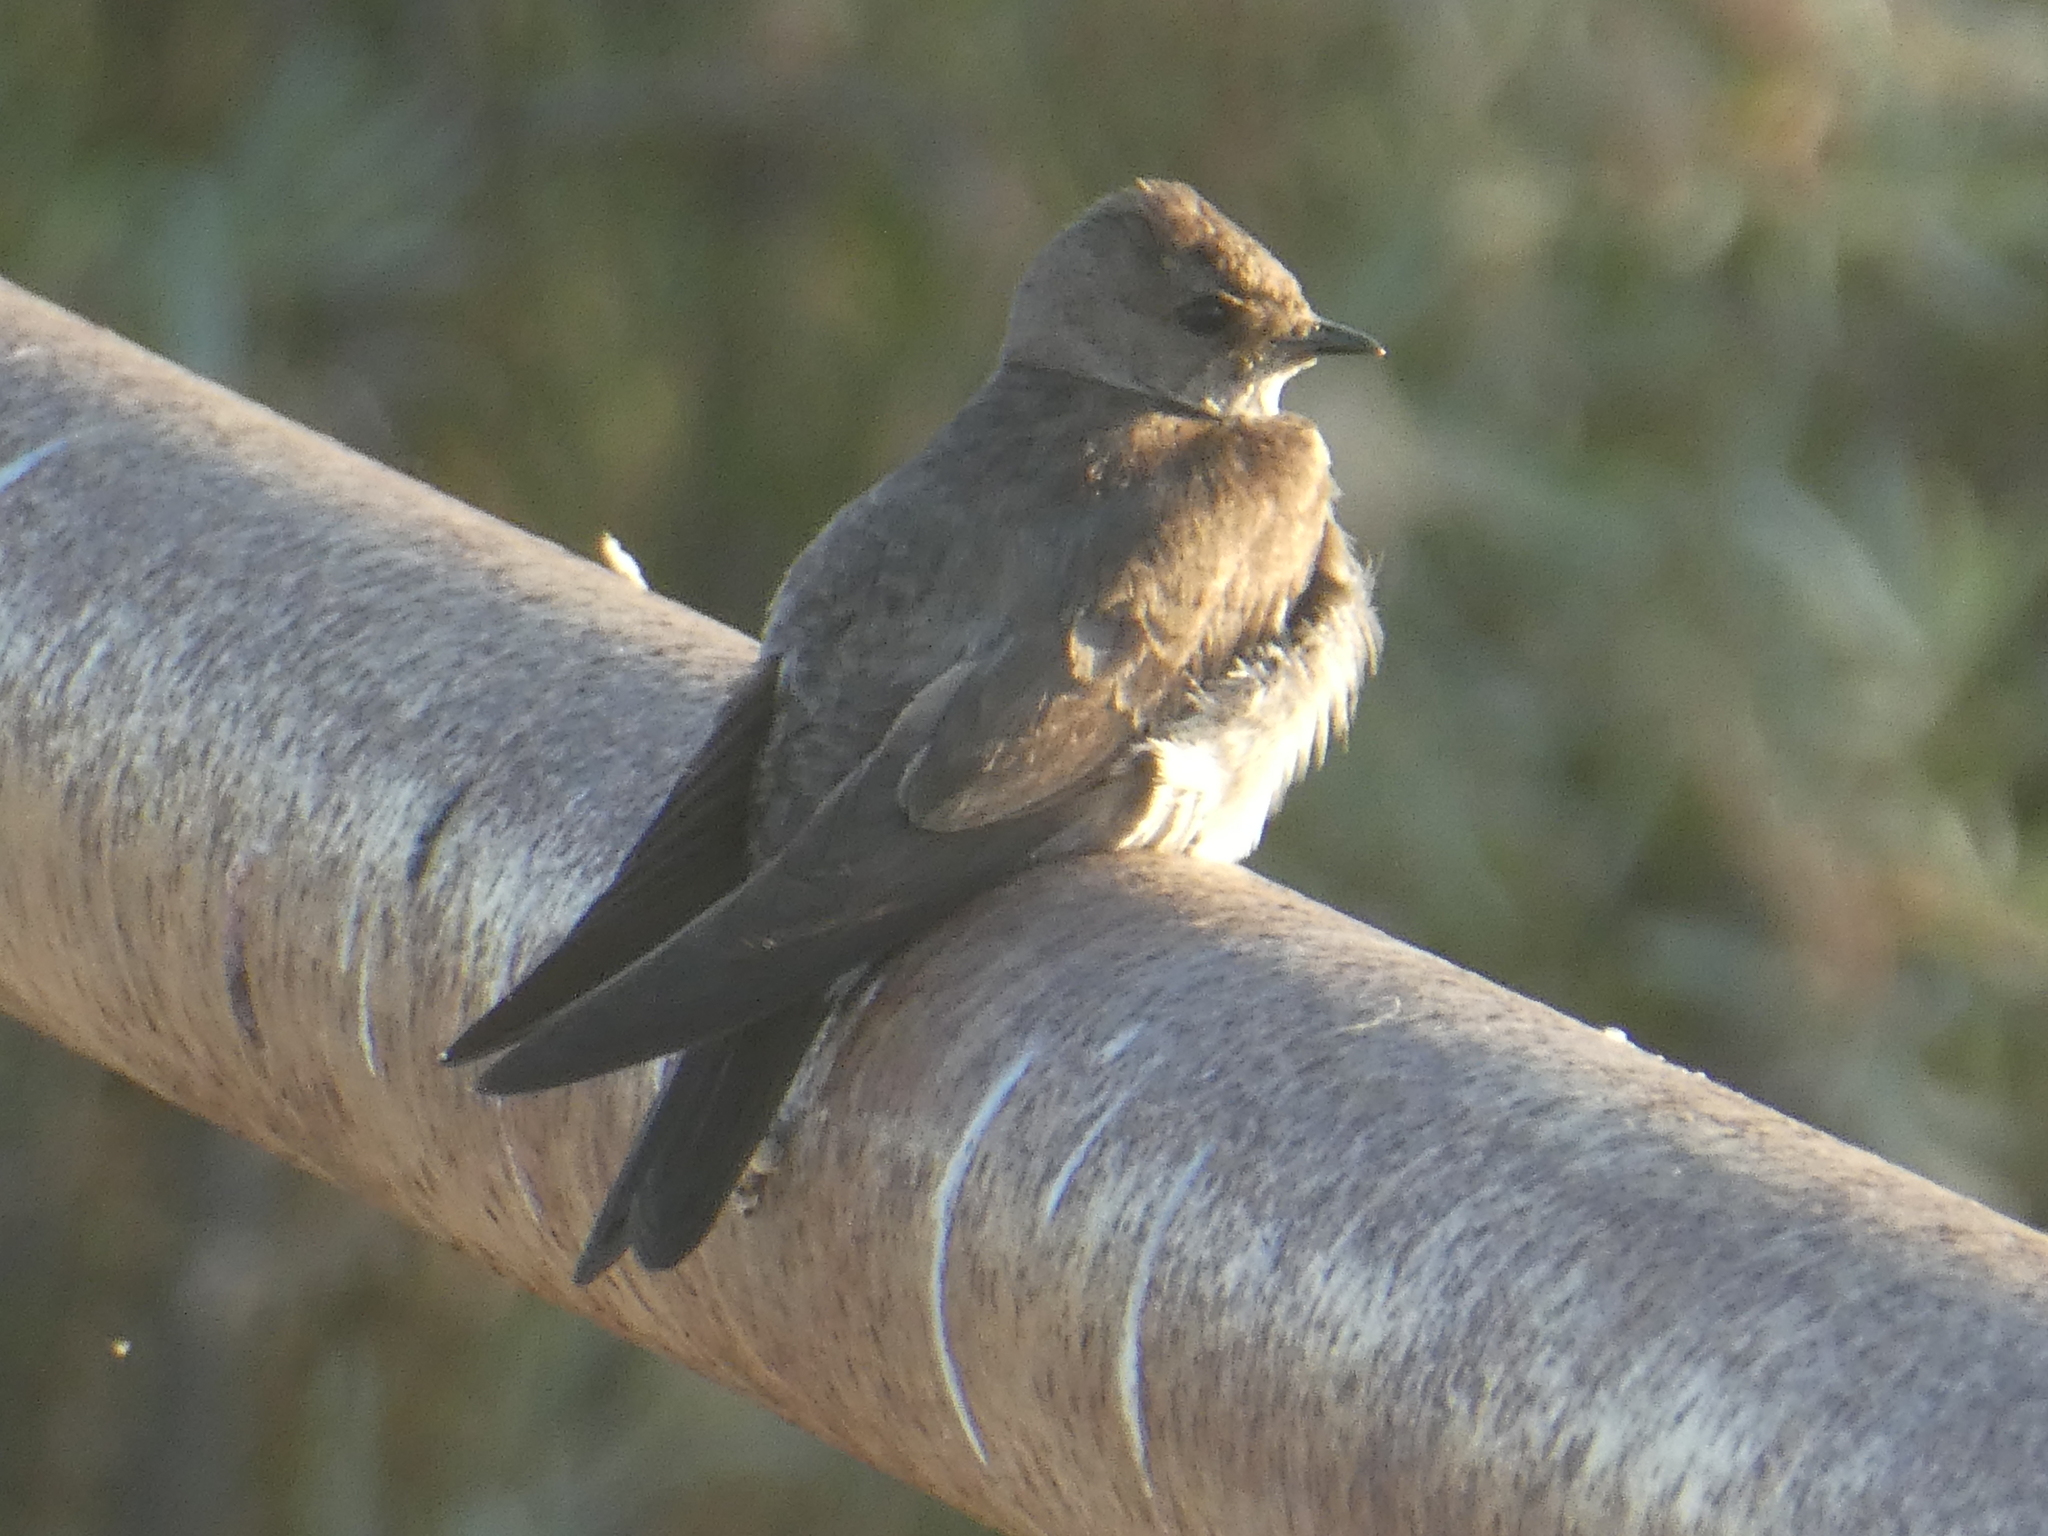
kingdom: Animalia
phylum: Chordata
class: Aves
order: Passeriformes
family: Hirundinidae
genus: Stelgidopteryx
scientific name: Stelgidopteryx serripennis
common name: Northern rough-winged swallow
